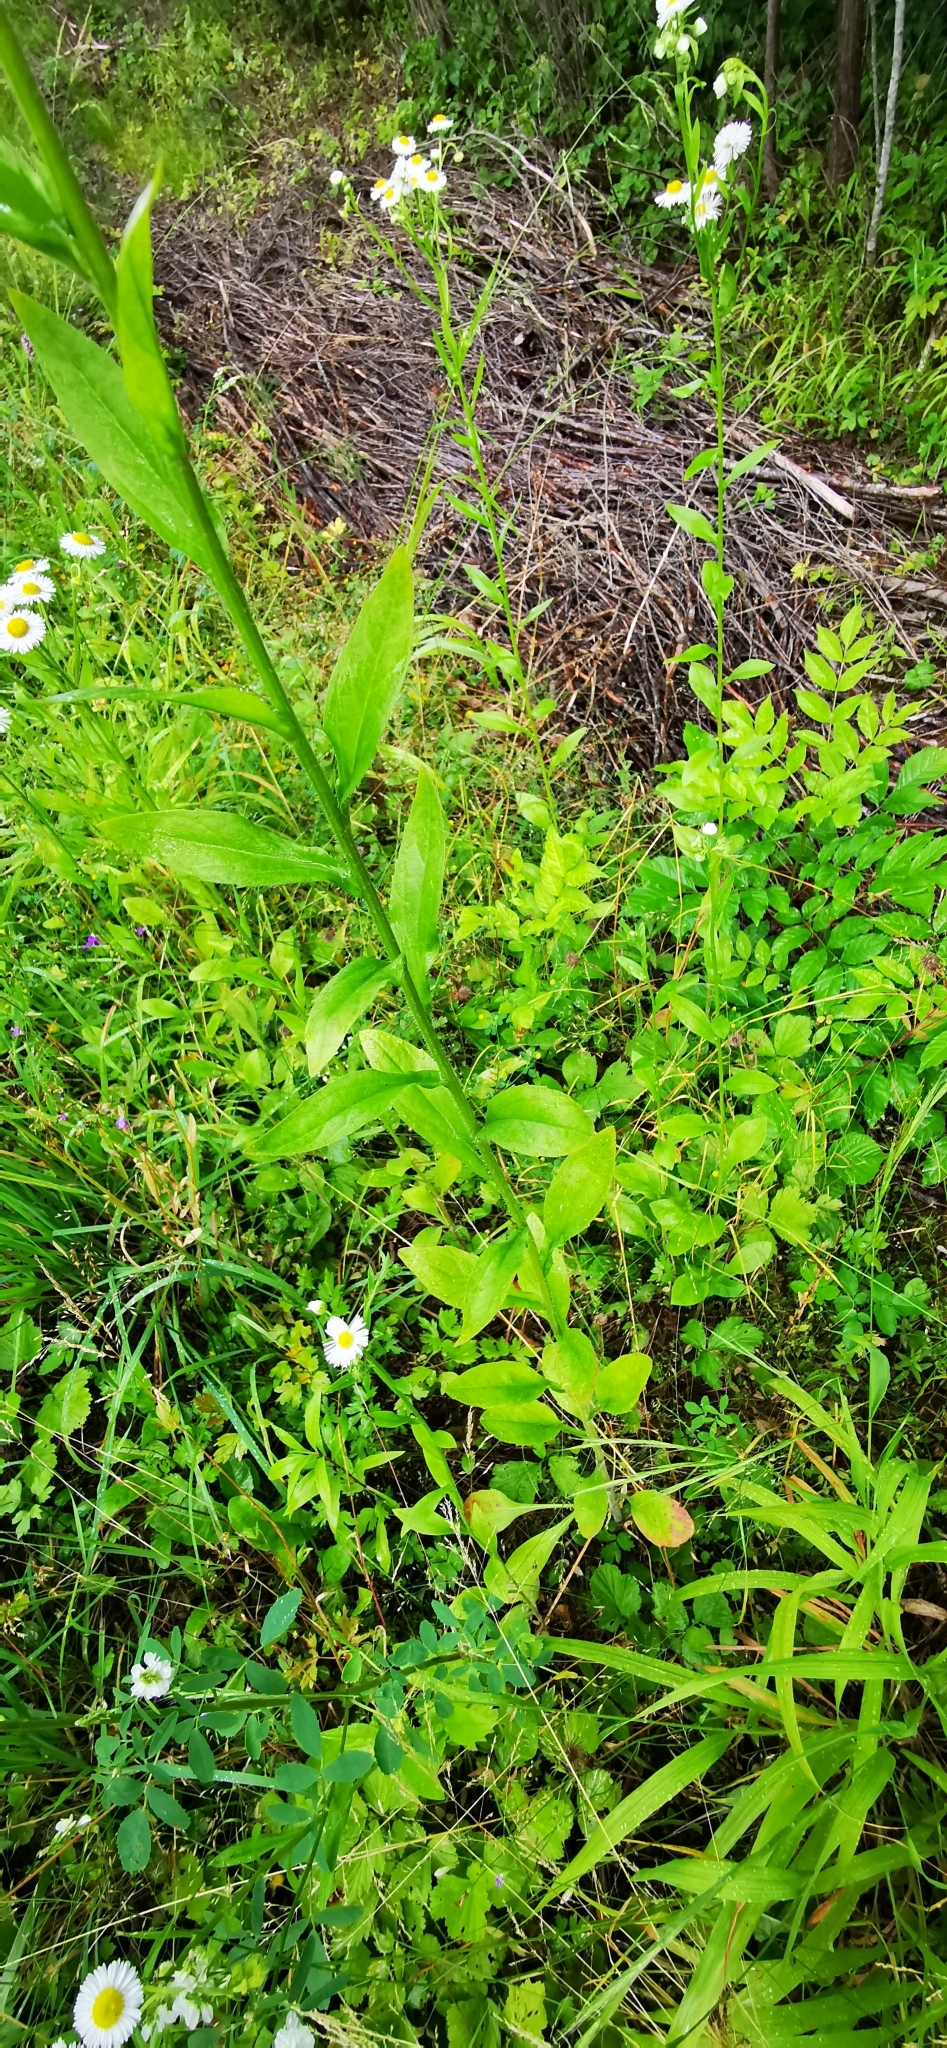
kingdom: Plantae
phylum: Tracheophyta
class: Magnoliopsida
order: Asterales
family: Asteraceae
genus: Erigeron
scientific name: Erigeron annuus
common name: Tall fleabane
